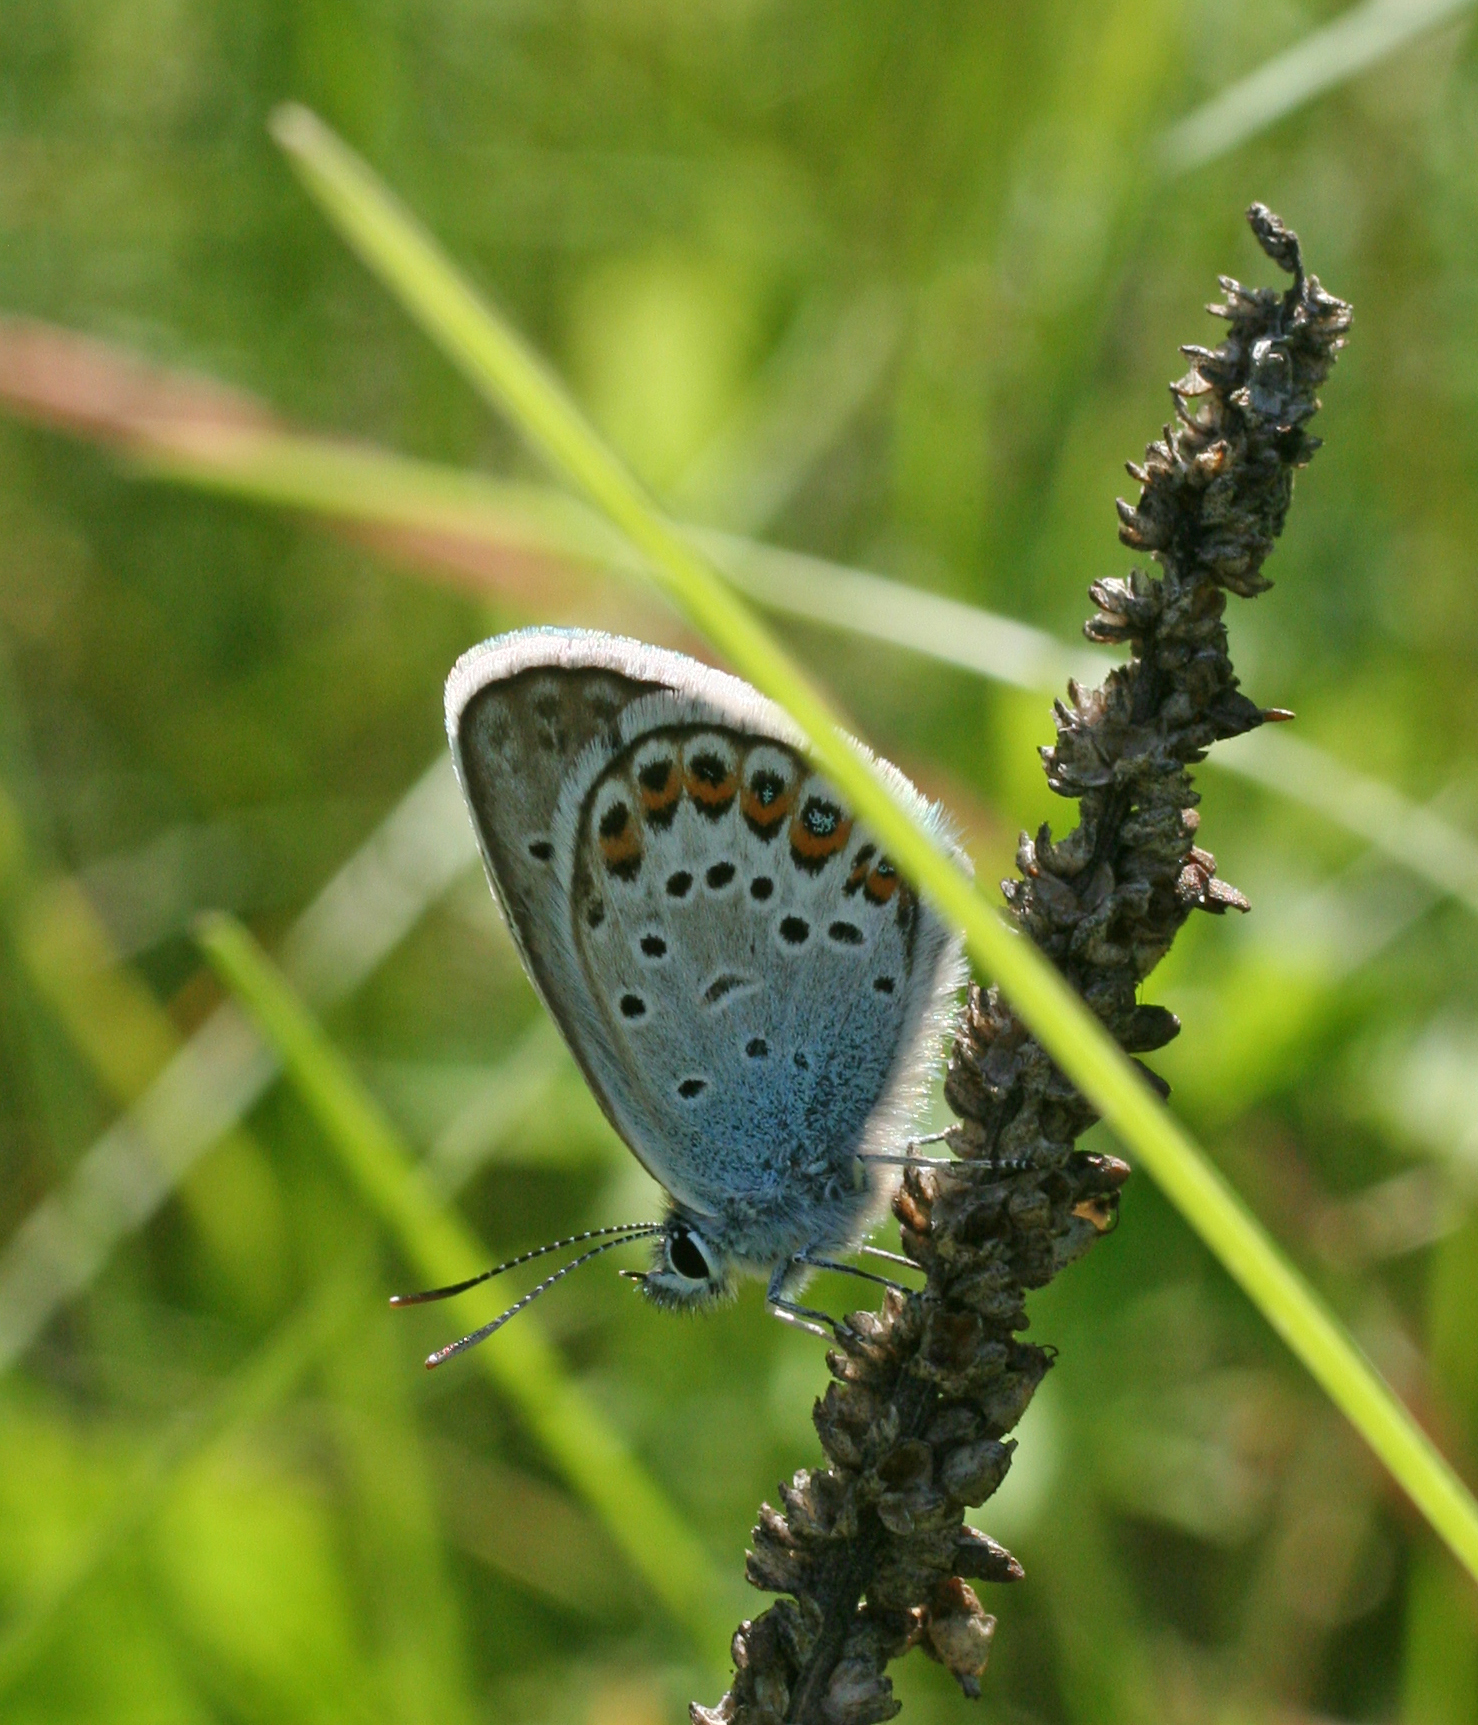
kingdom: Animalia
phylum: Arthropoda
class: Insecta
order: Lepidoptera
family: Lycaenidae
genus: Plebejus
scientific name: Plebejus argus
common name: Silver-studded blue
